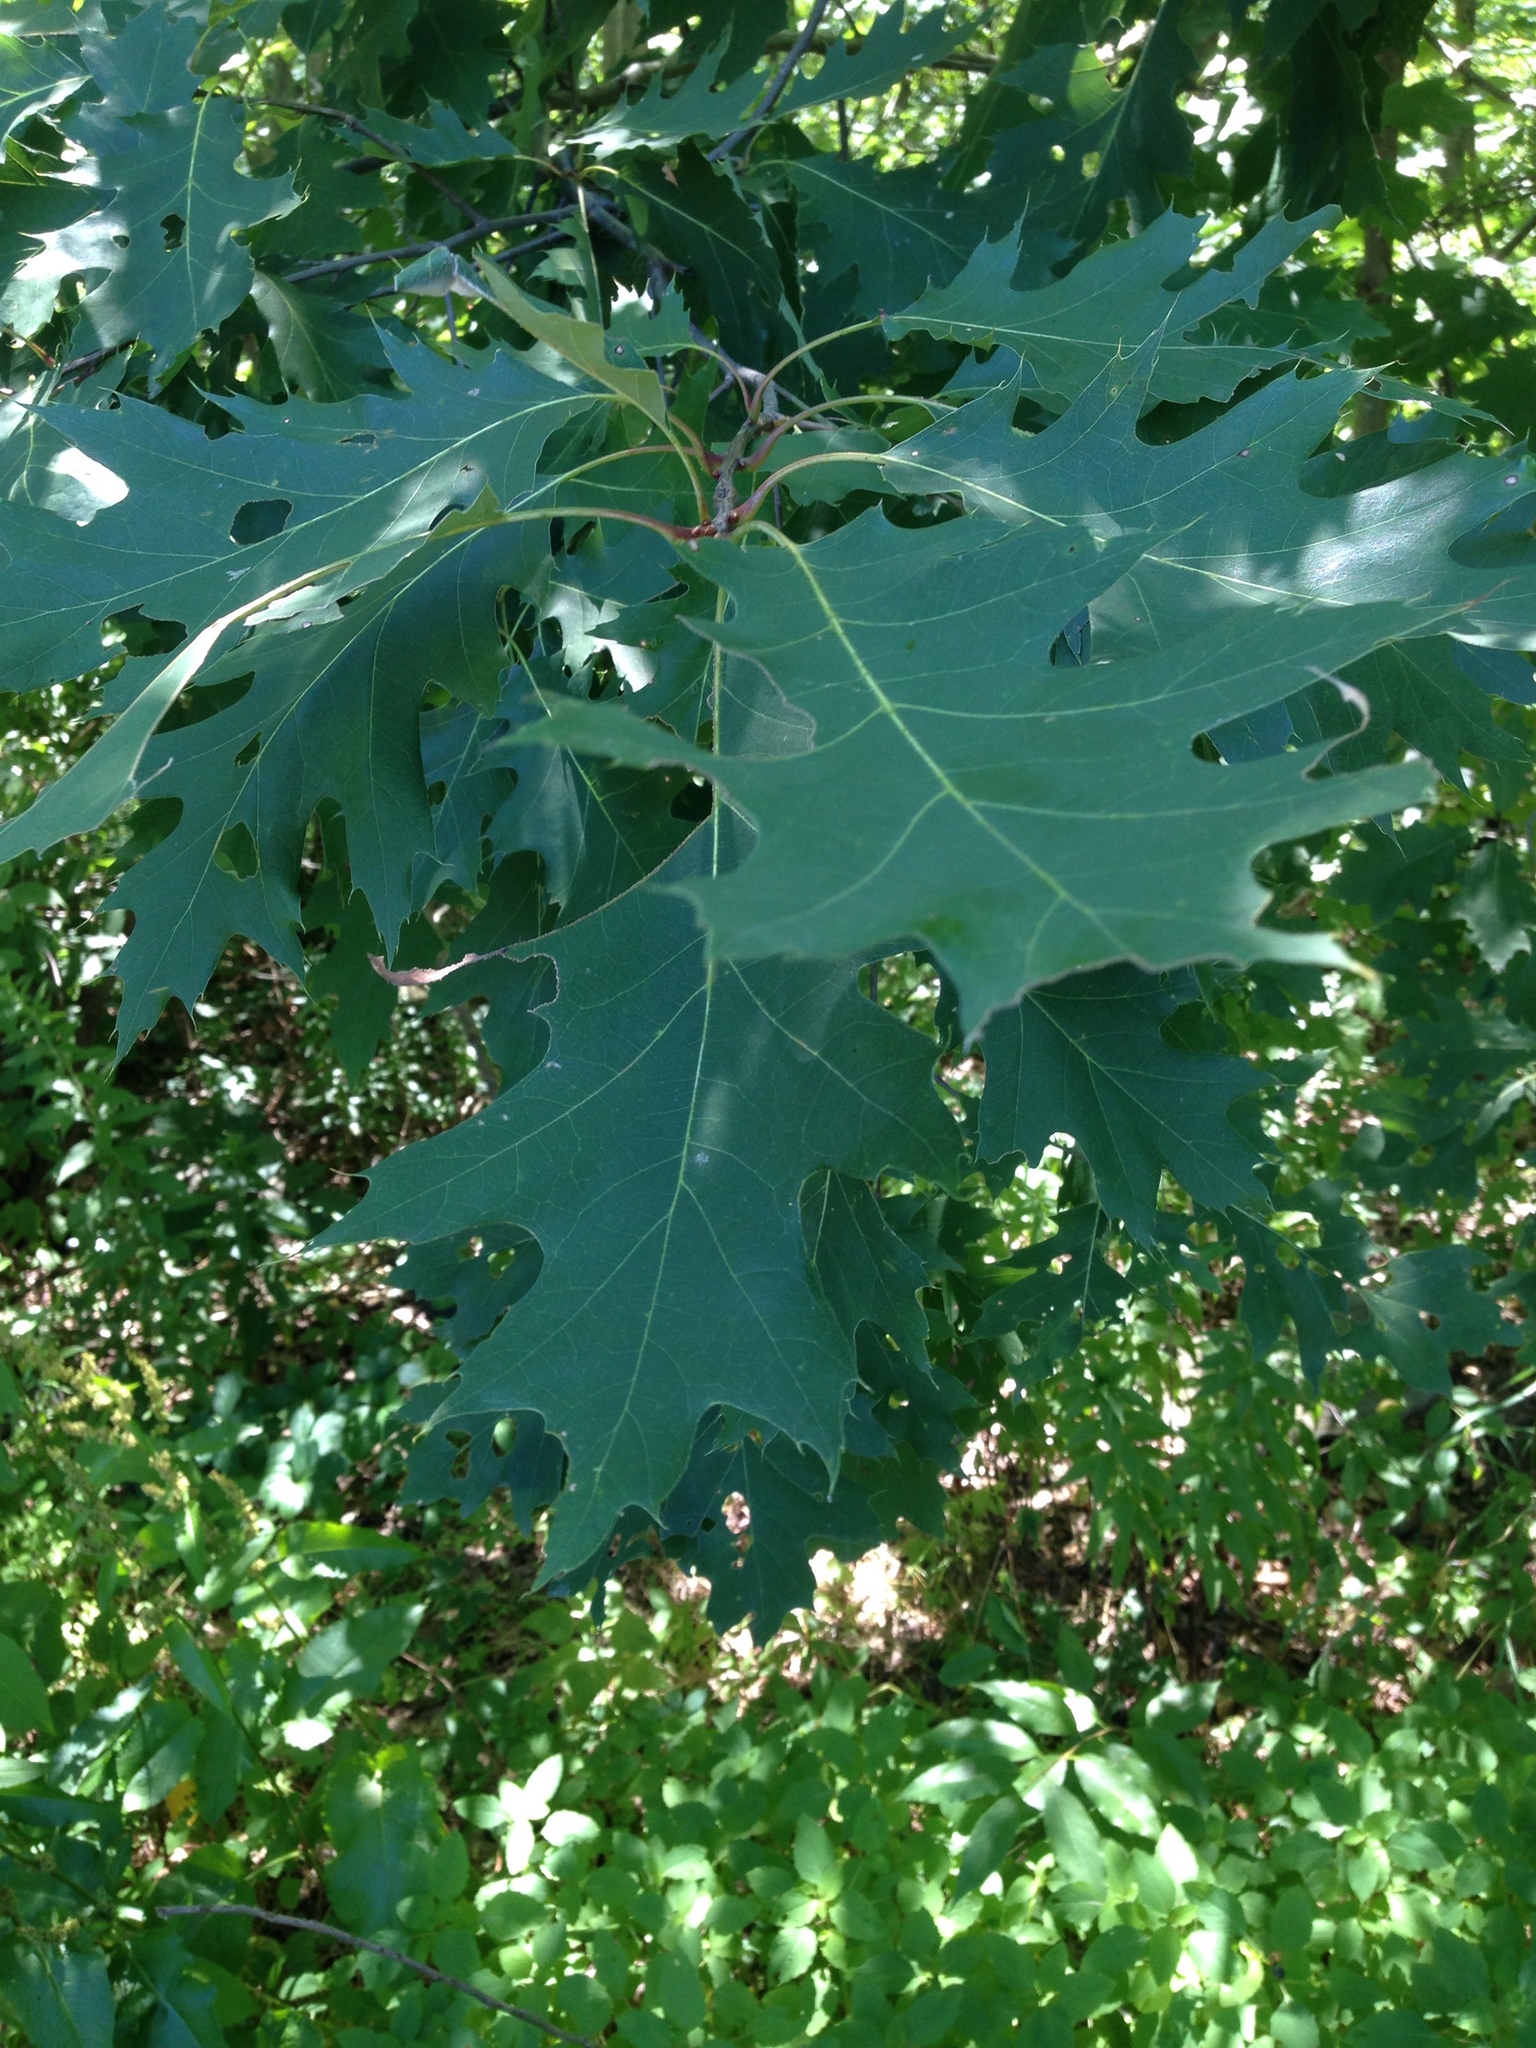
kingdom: Plantae
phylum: Tracheophyta
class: Magnoliopsida
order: Fagales
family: Fagaceae
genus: Quercus
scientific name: Quercus rubra
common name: Red oak
